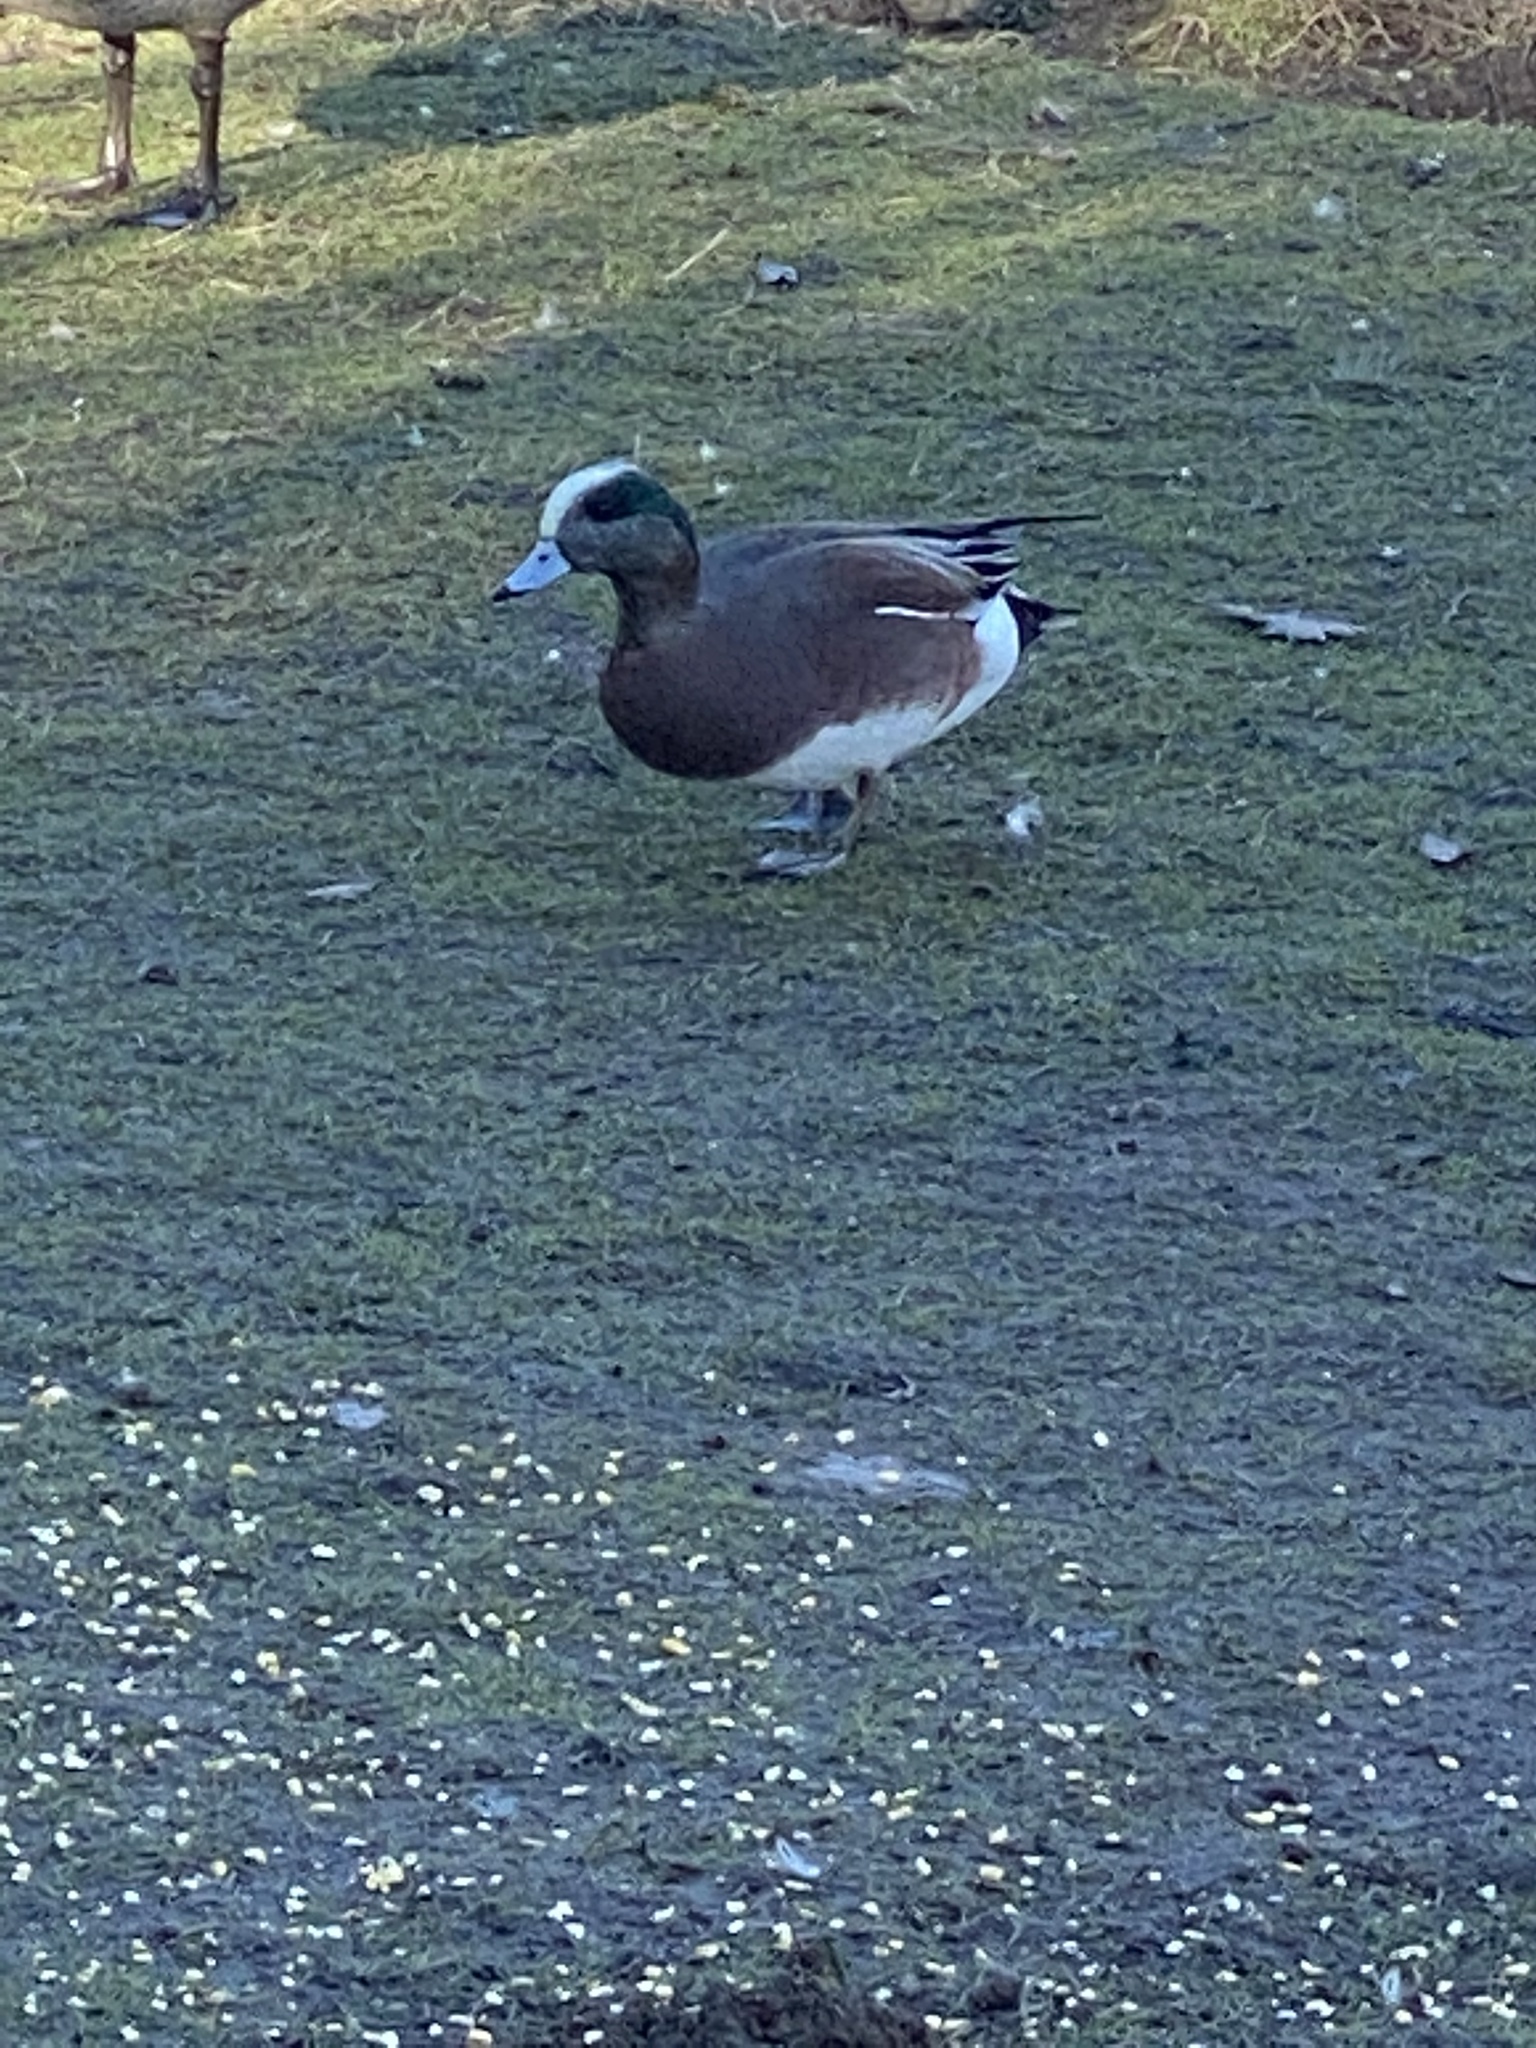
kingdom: Animalia
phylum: Chordata
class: Aves
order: Anseriformes
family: Anatidae
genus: Mareca
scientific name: Mareca americana
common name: American wigeon
